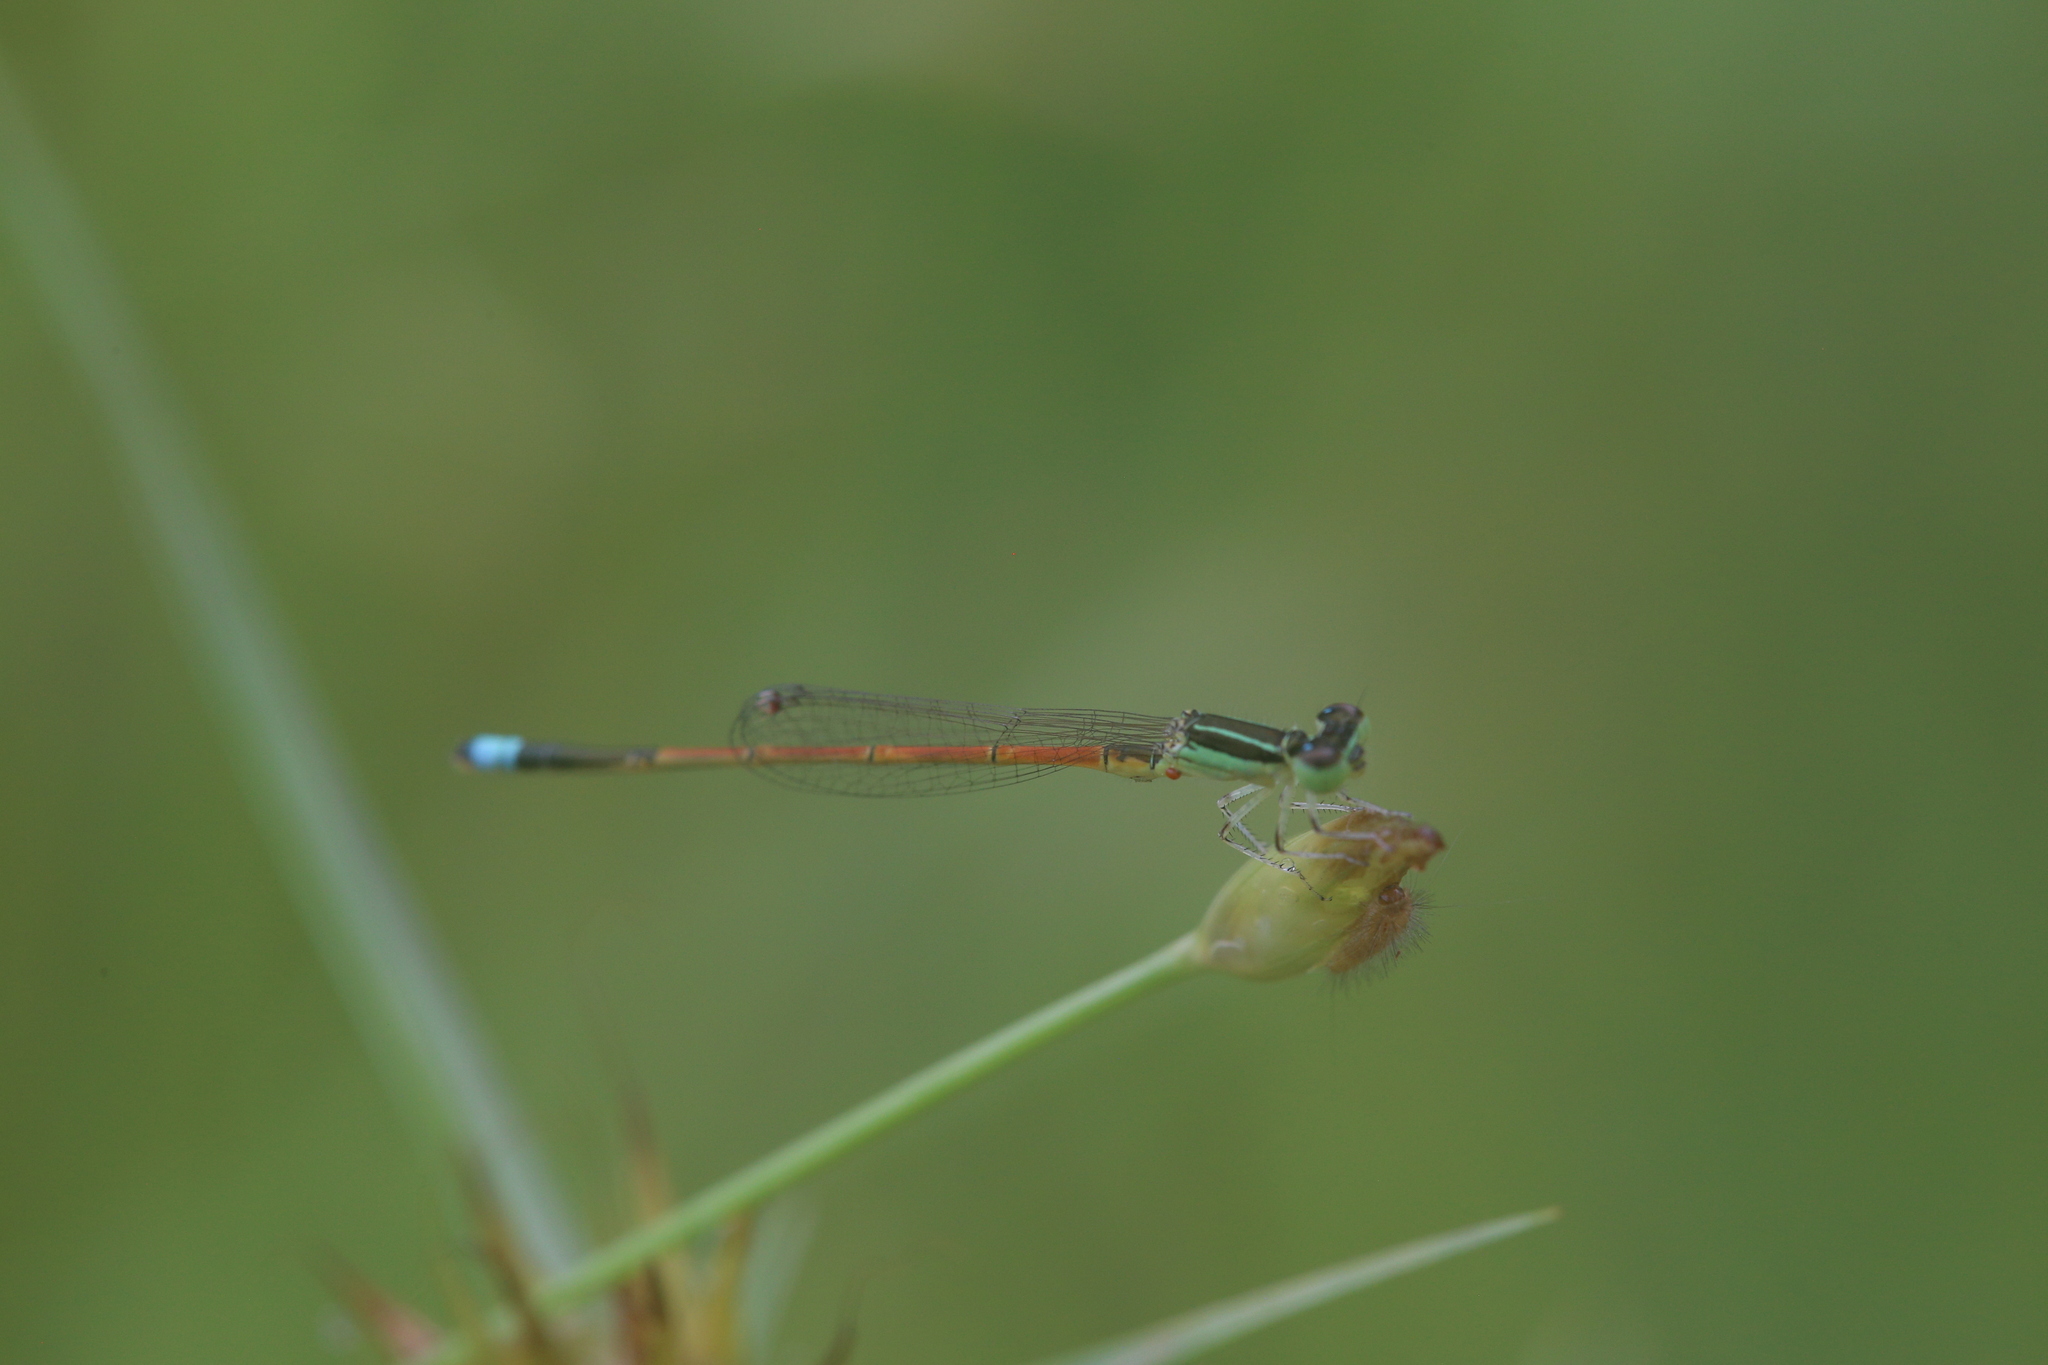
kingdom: Animalia
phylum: Arthropoda
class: Insecta
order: Odonata
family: Coenagrionidae
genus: Ischnura
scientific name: Ischnura aurora
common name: Gossamer damselfly
